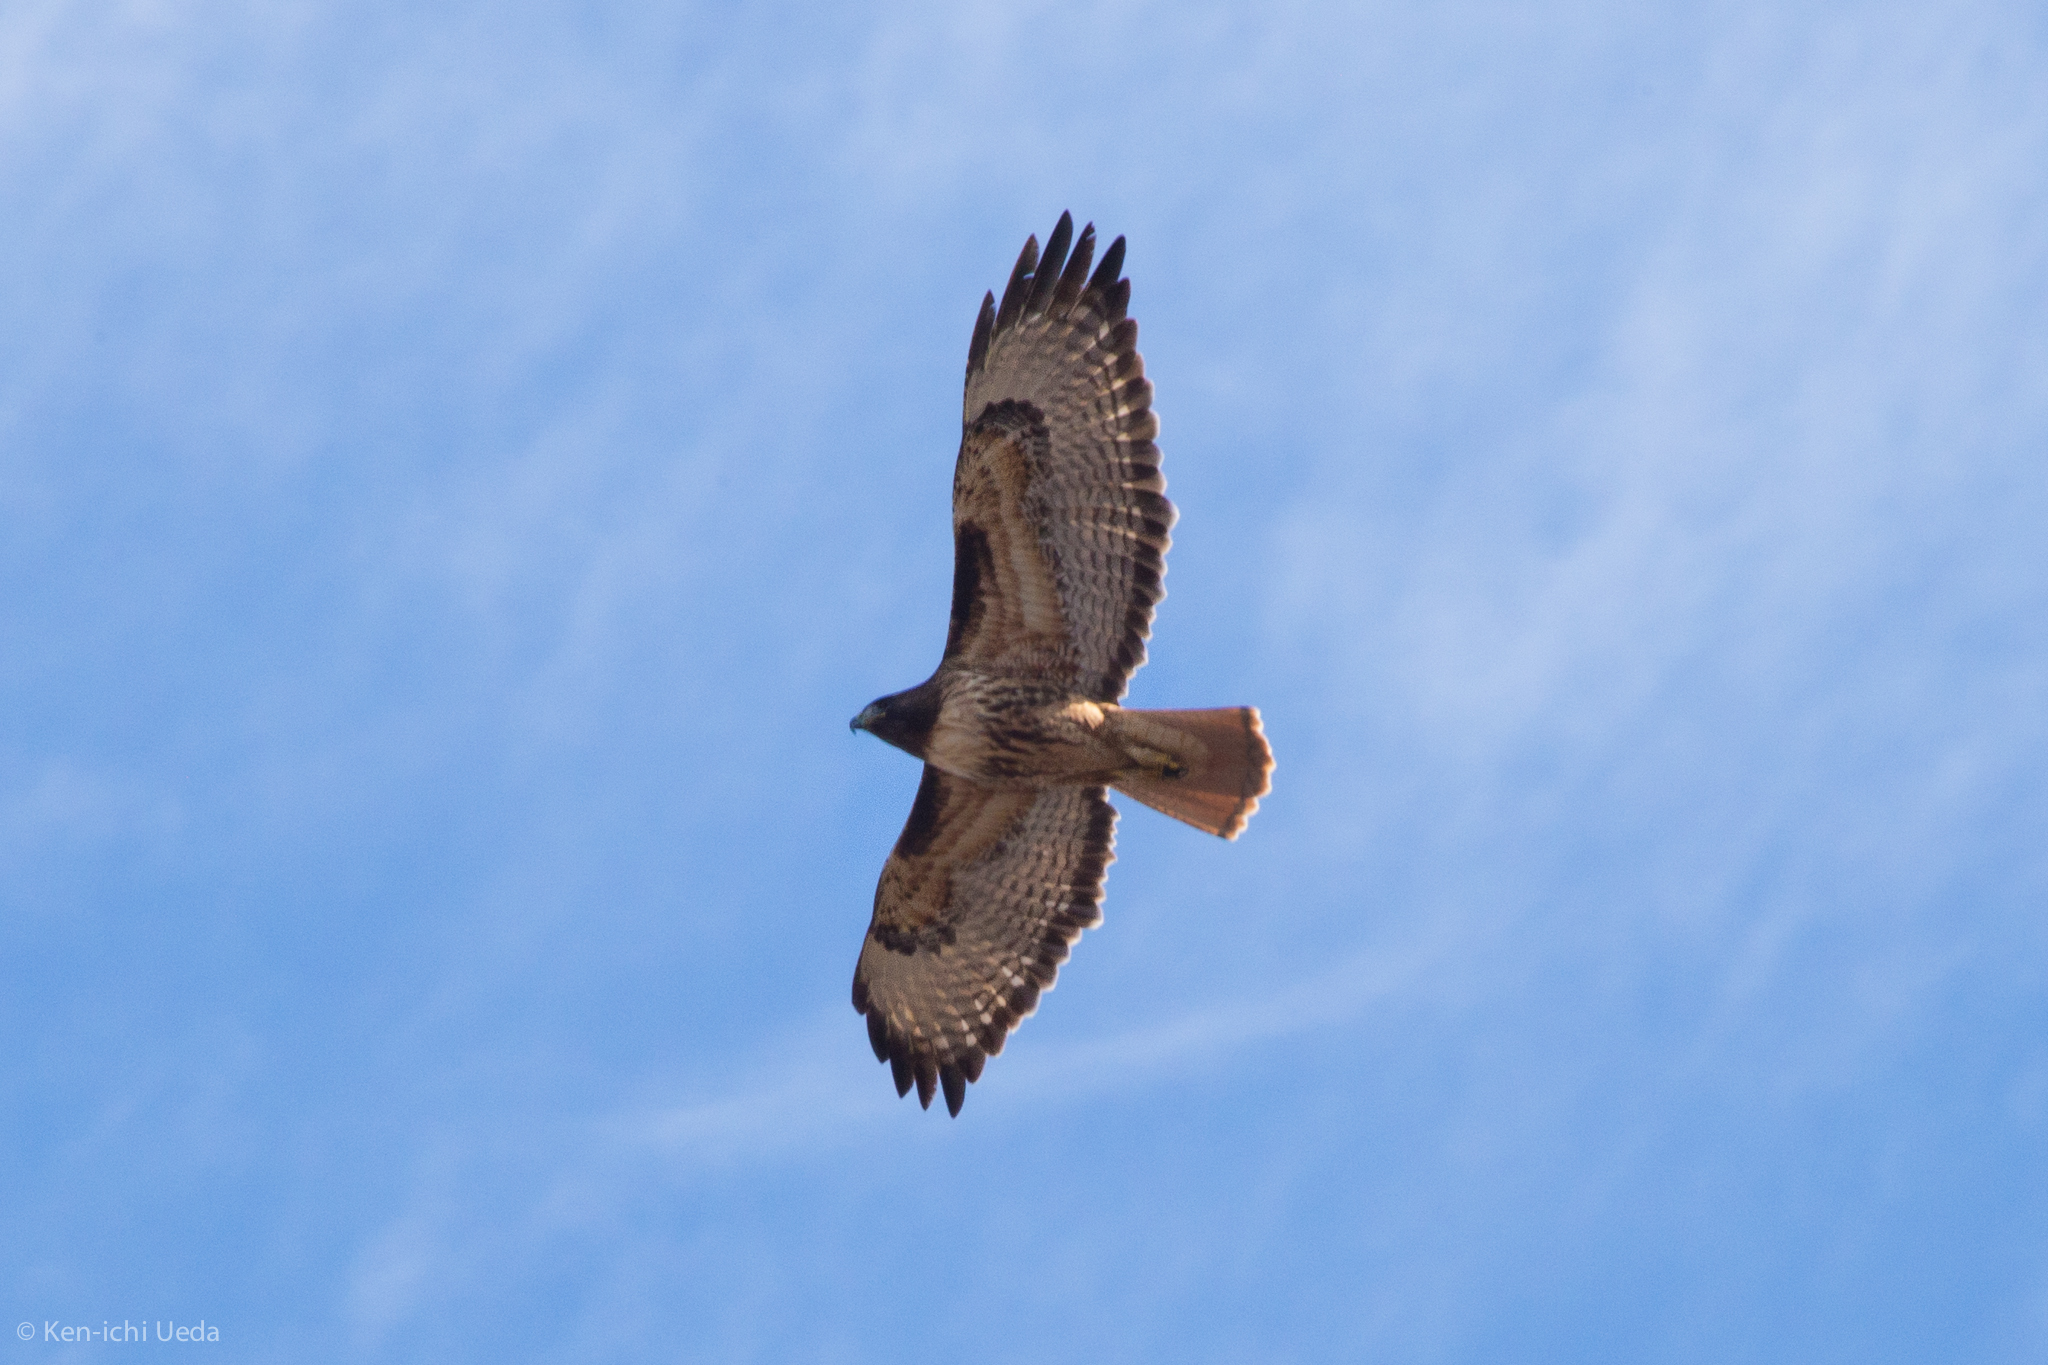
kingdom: Animalia
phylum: Chordata
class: Aves
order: Accipitriformes
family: Accipitridae
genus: Buteo
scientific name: Buteo jamaicensis
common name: Red-tailed hawk
